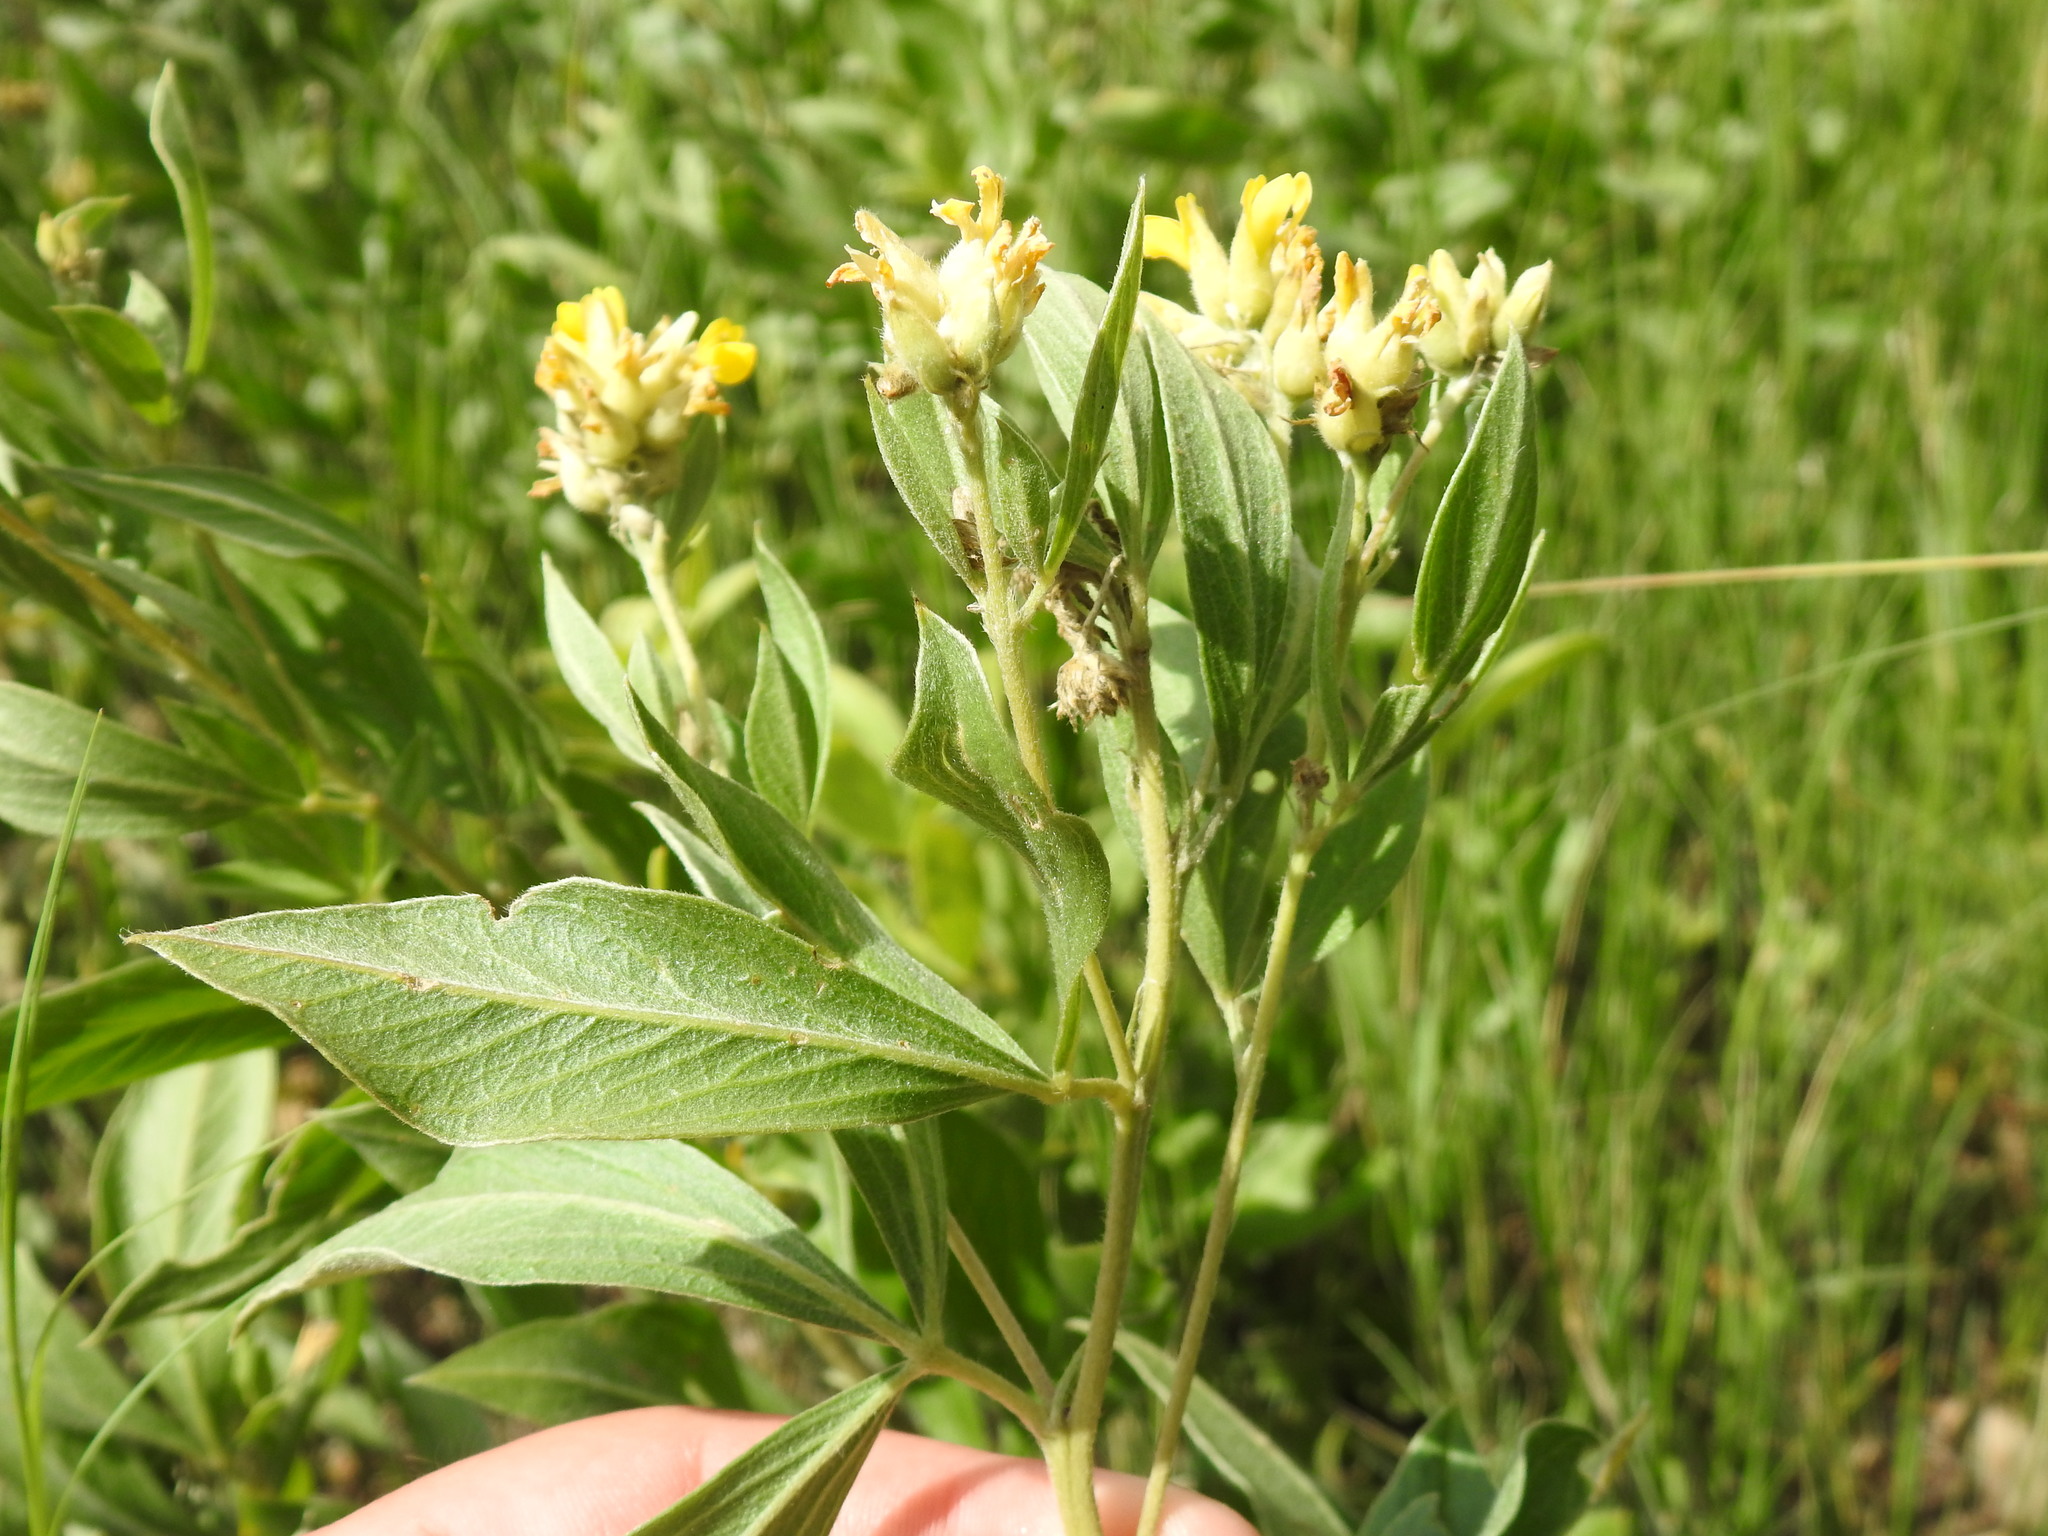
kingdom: Plantae
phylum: Tracheophyta
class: Magnoliopsida
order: Fabales
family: Fabaceae
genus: Pearsonia
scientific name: Pearsonia cajanifolia
